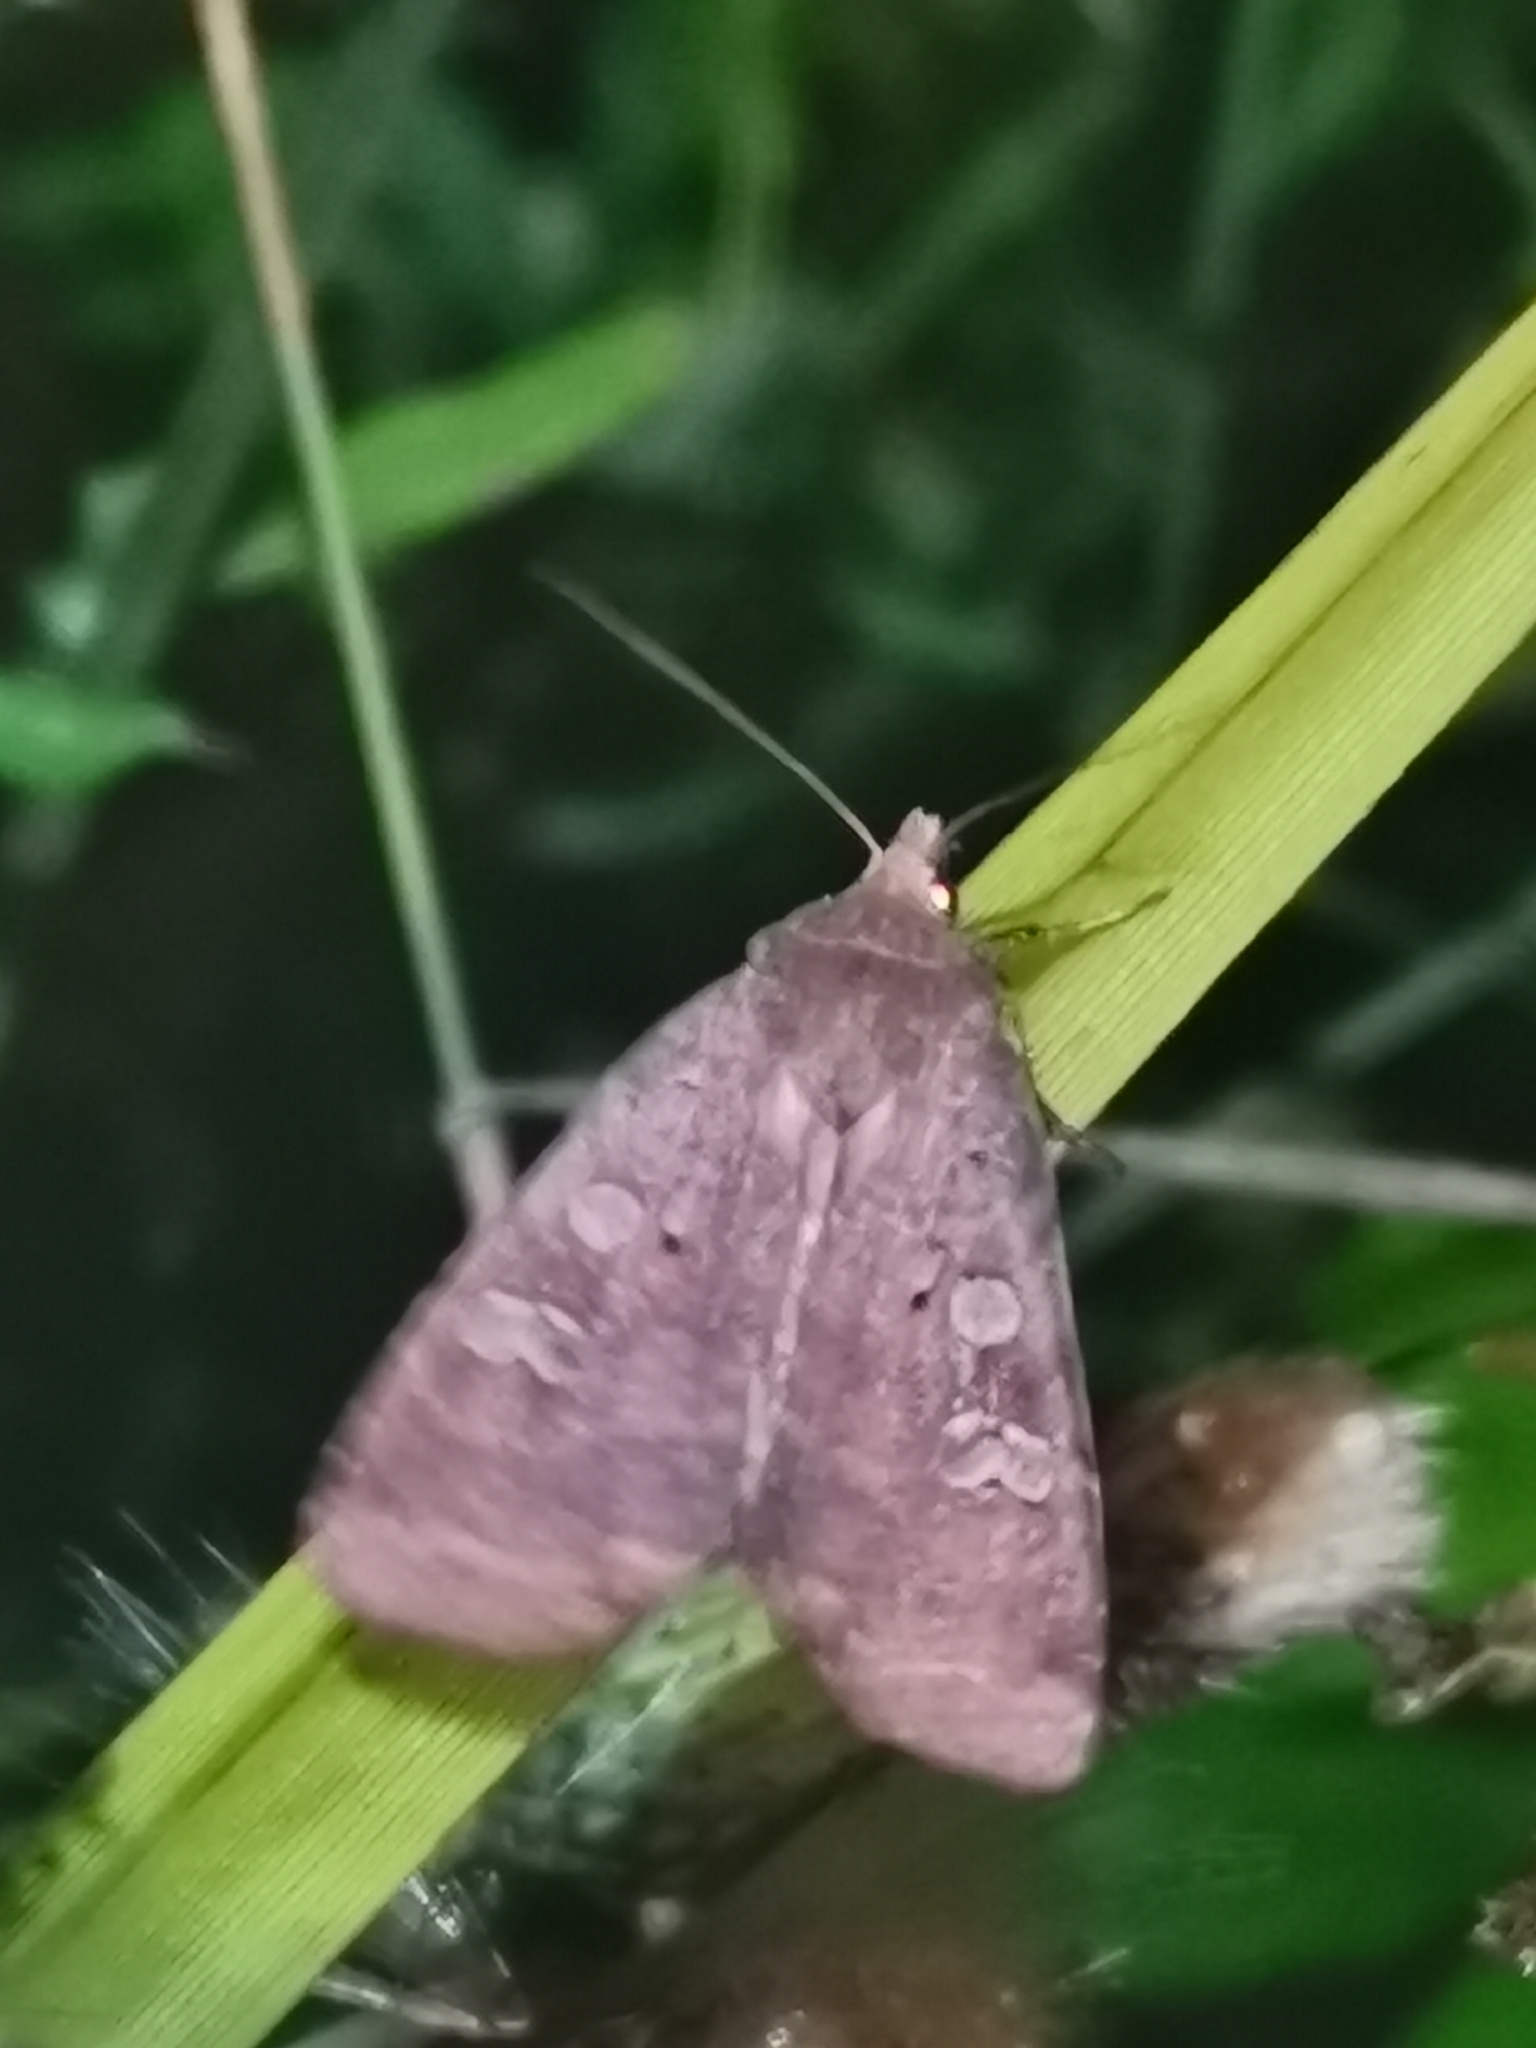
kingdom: Animalia
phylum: Arthropoda
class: Insecta
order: Lepidoptera
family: Noctuidae
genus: Diarsia
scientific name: Diarsia dahlii
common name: Barred chestnut
